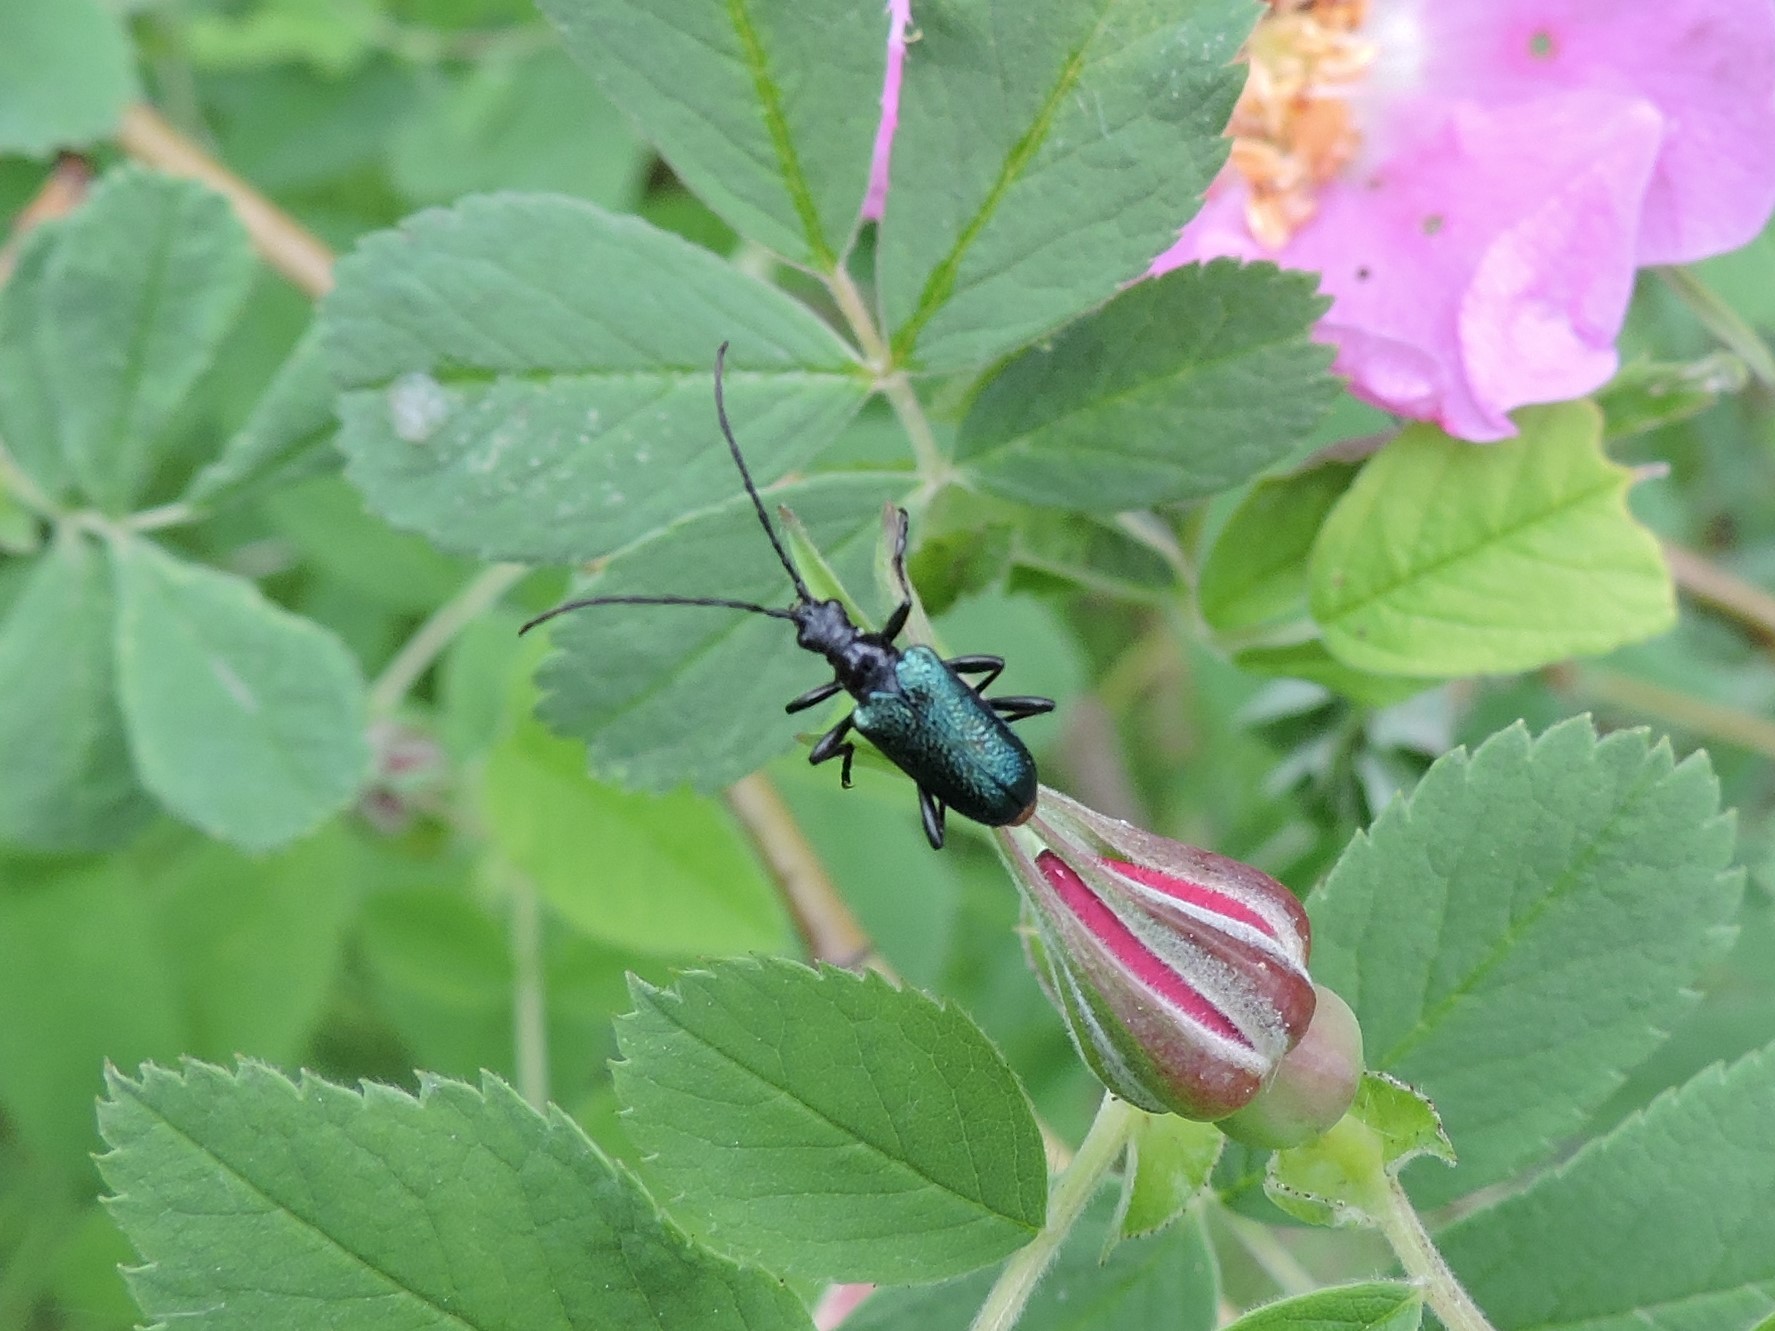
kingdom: Animalia
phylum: Arthropoda
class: Insecta
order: Coleoptera
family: Cerambycidae
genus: Gaurotes
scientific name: Gaurotes virginea
